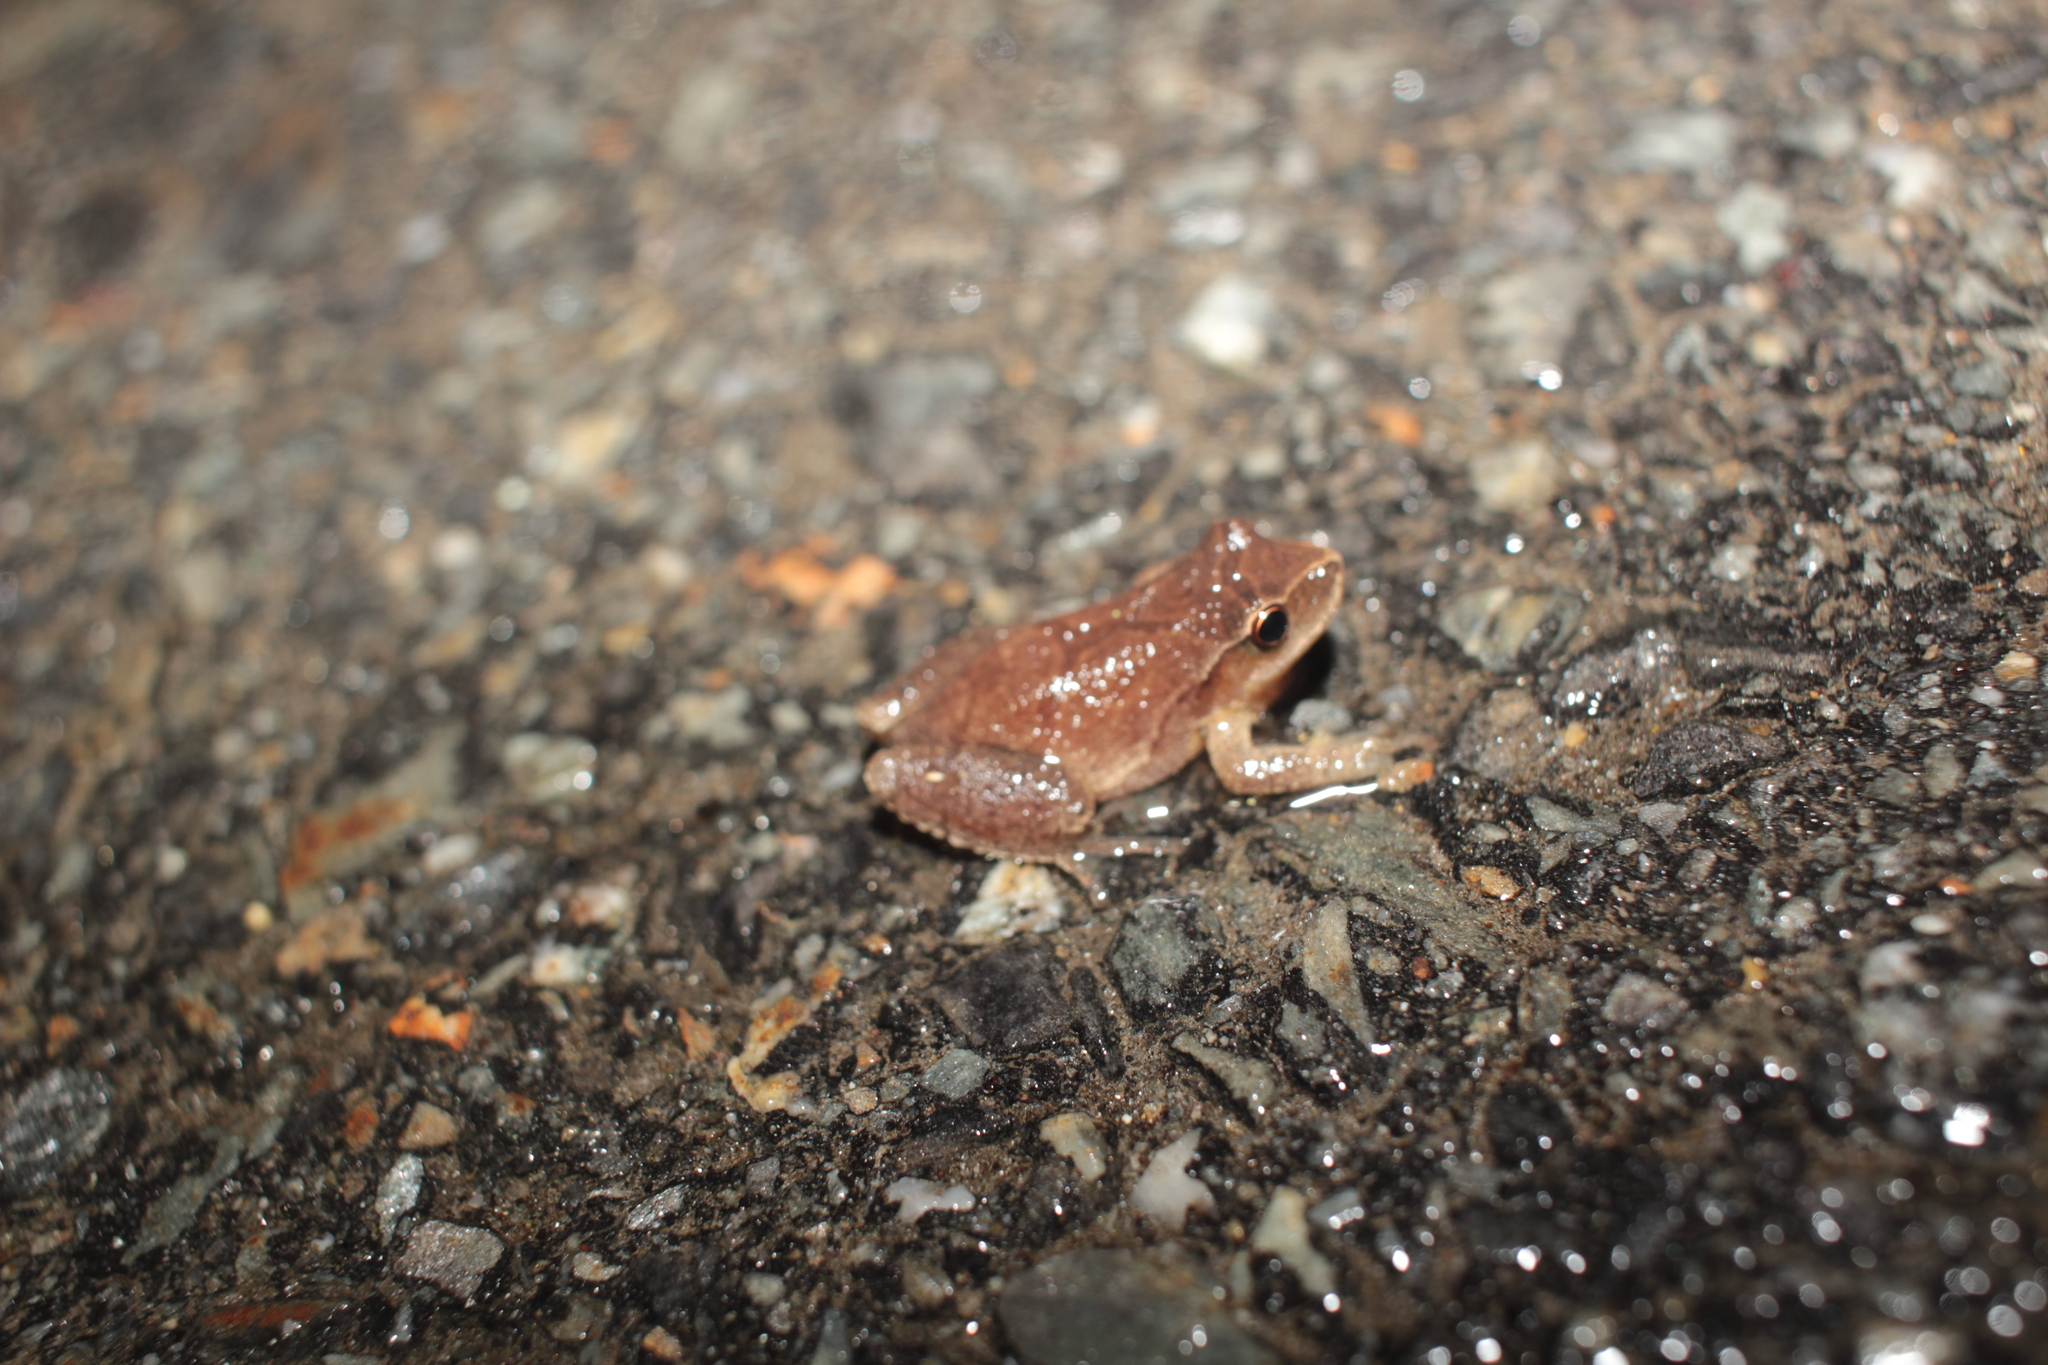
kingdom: Animalia
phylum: Chordata
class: Amphibia
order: Anura
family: Hylidae
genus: Pseudacris
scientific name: Pseudacris crucifer
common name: Spring peeper
